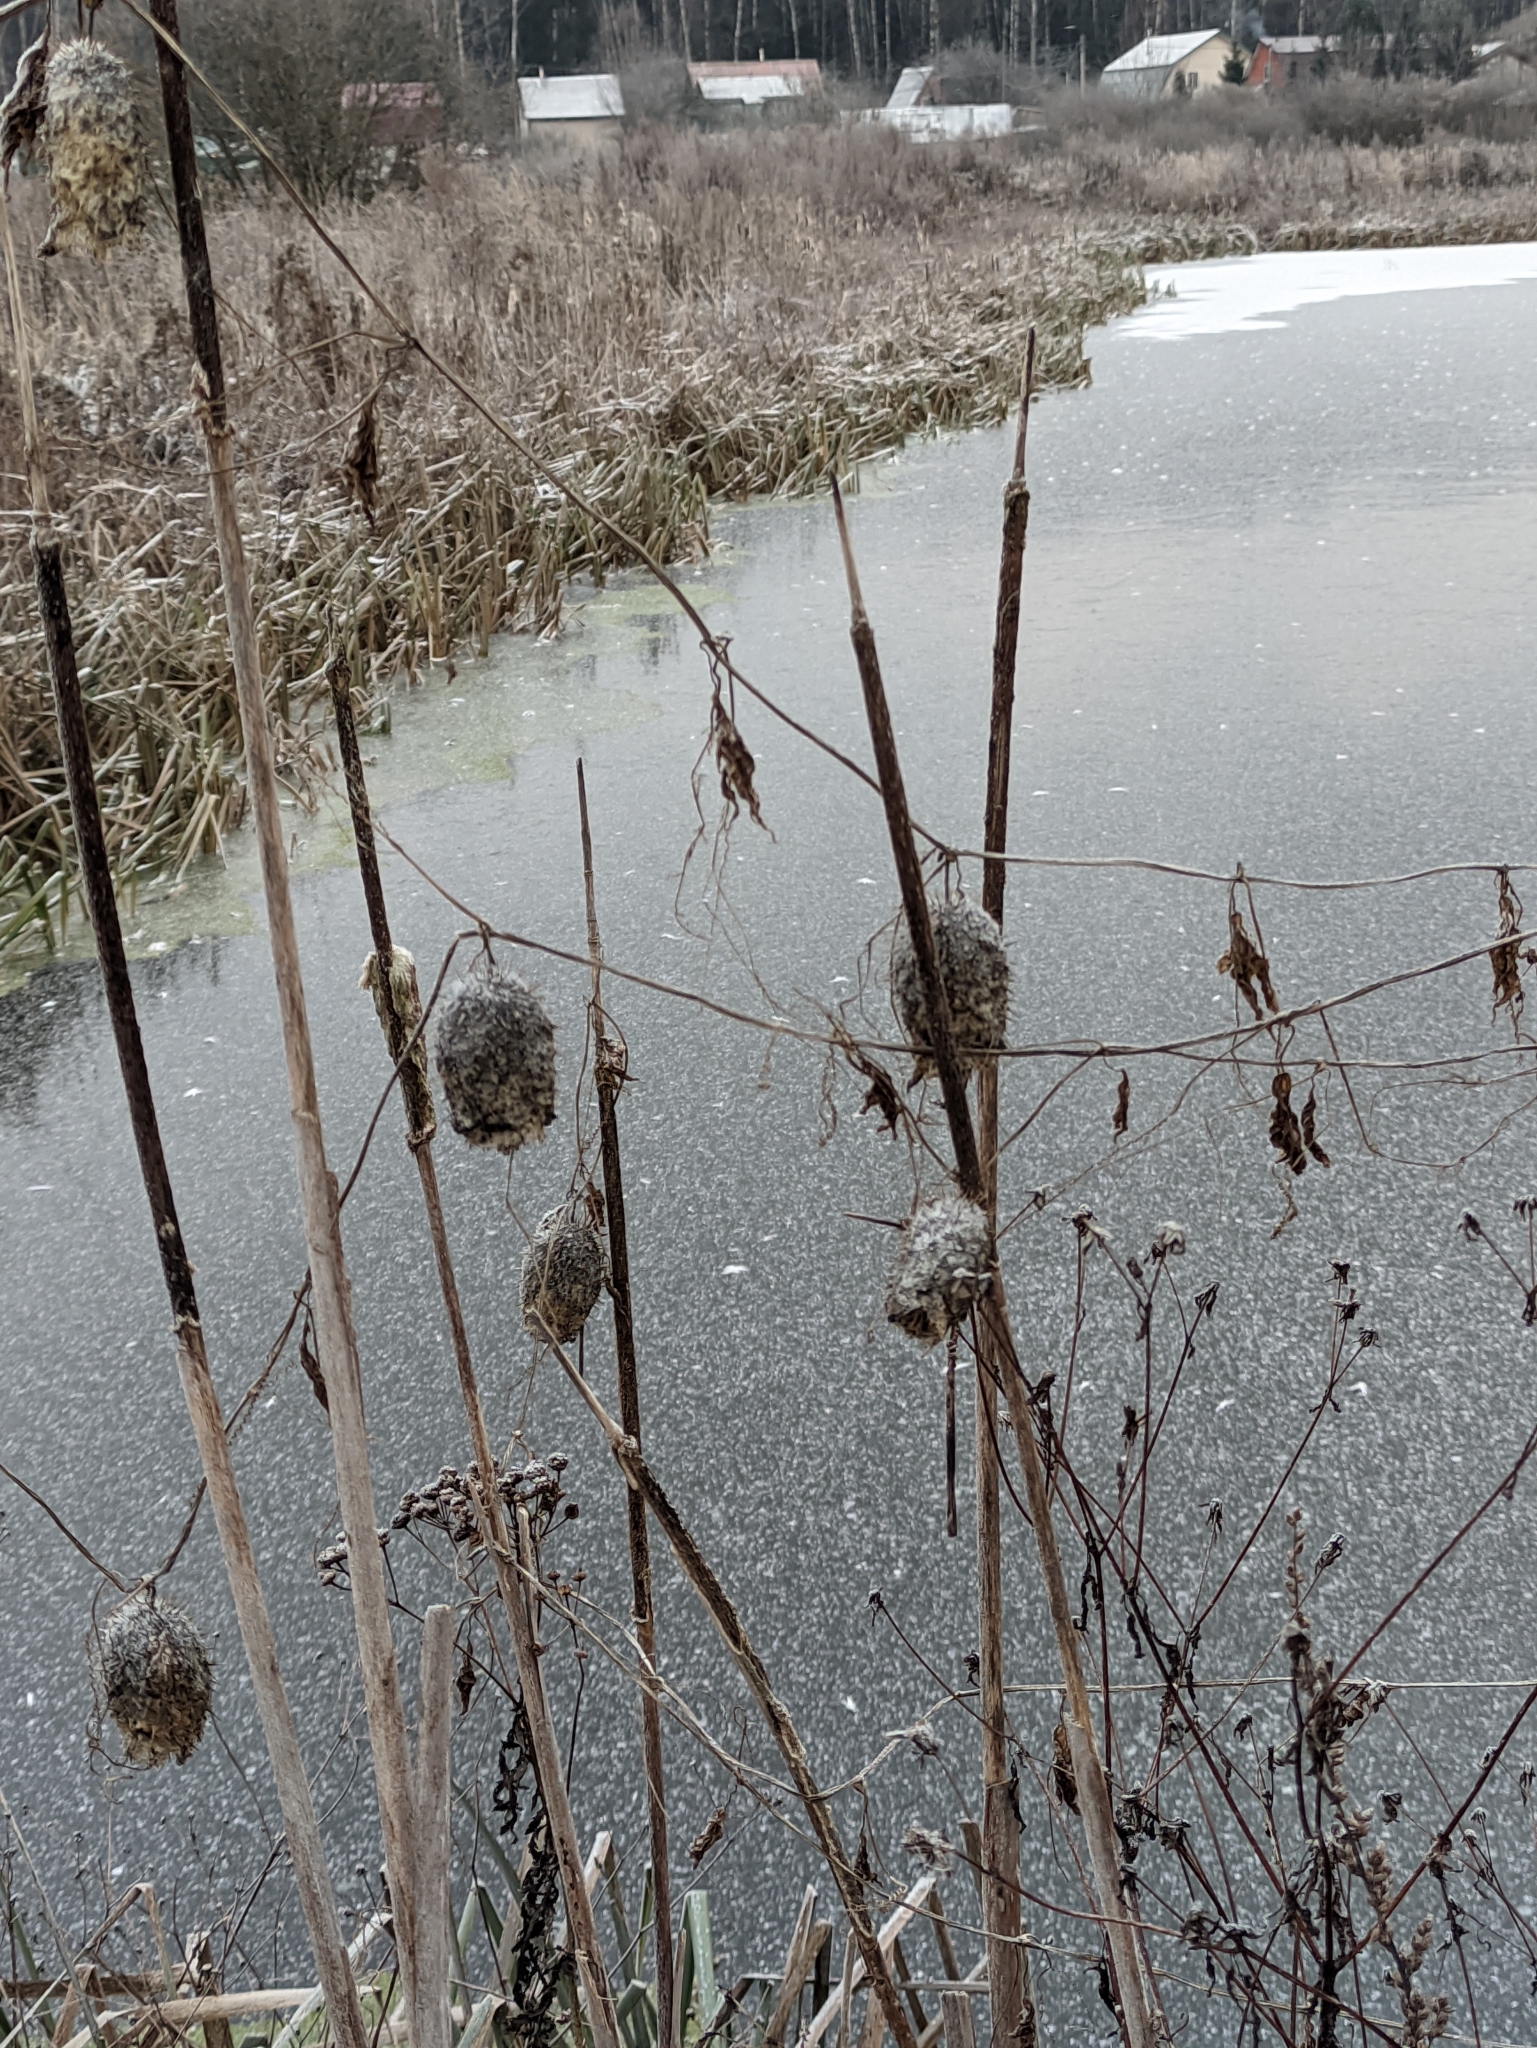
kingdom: Plantae
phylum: Tracheophyta
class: Magnoliopsida
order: Cucurbitales
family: Cucurbitaceae
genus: Echinocystis
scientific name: Echinocystis lobata
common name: Wild cucumber
